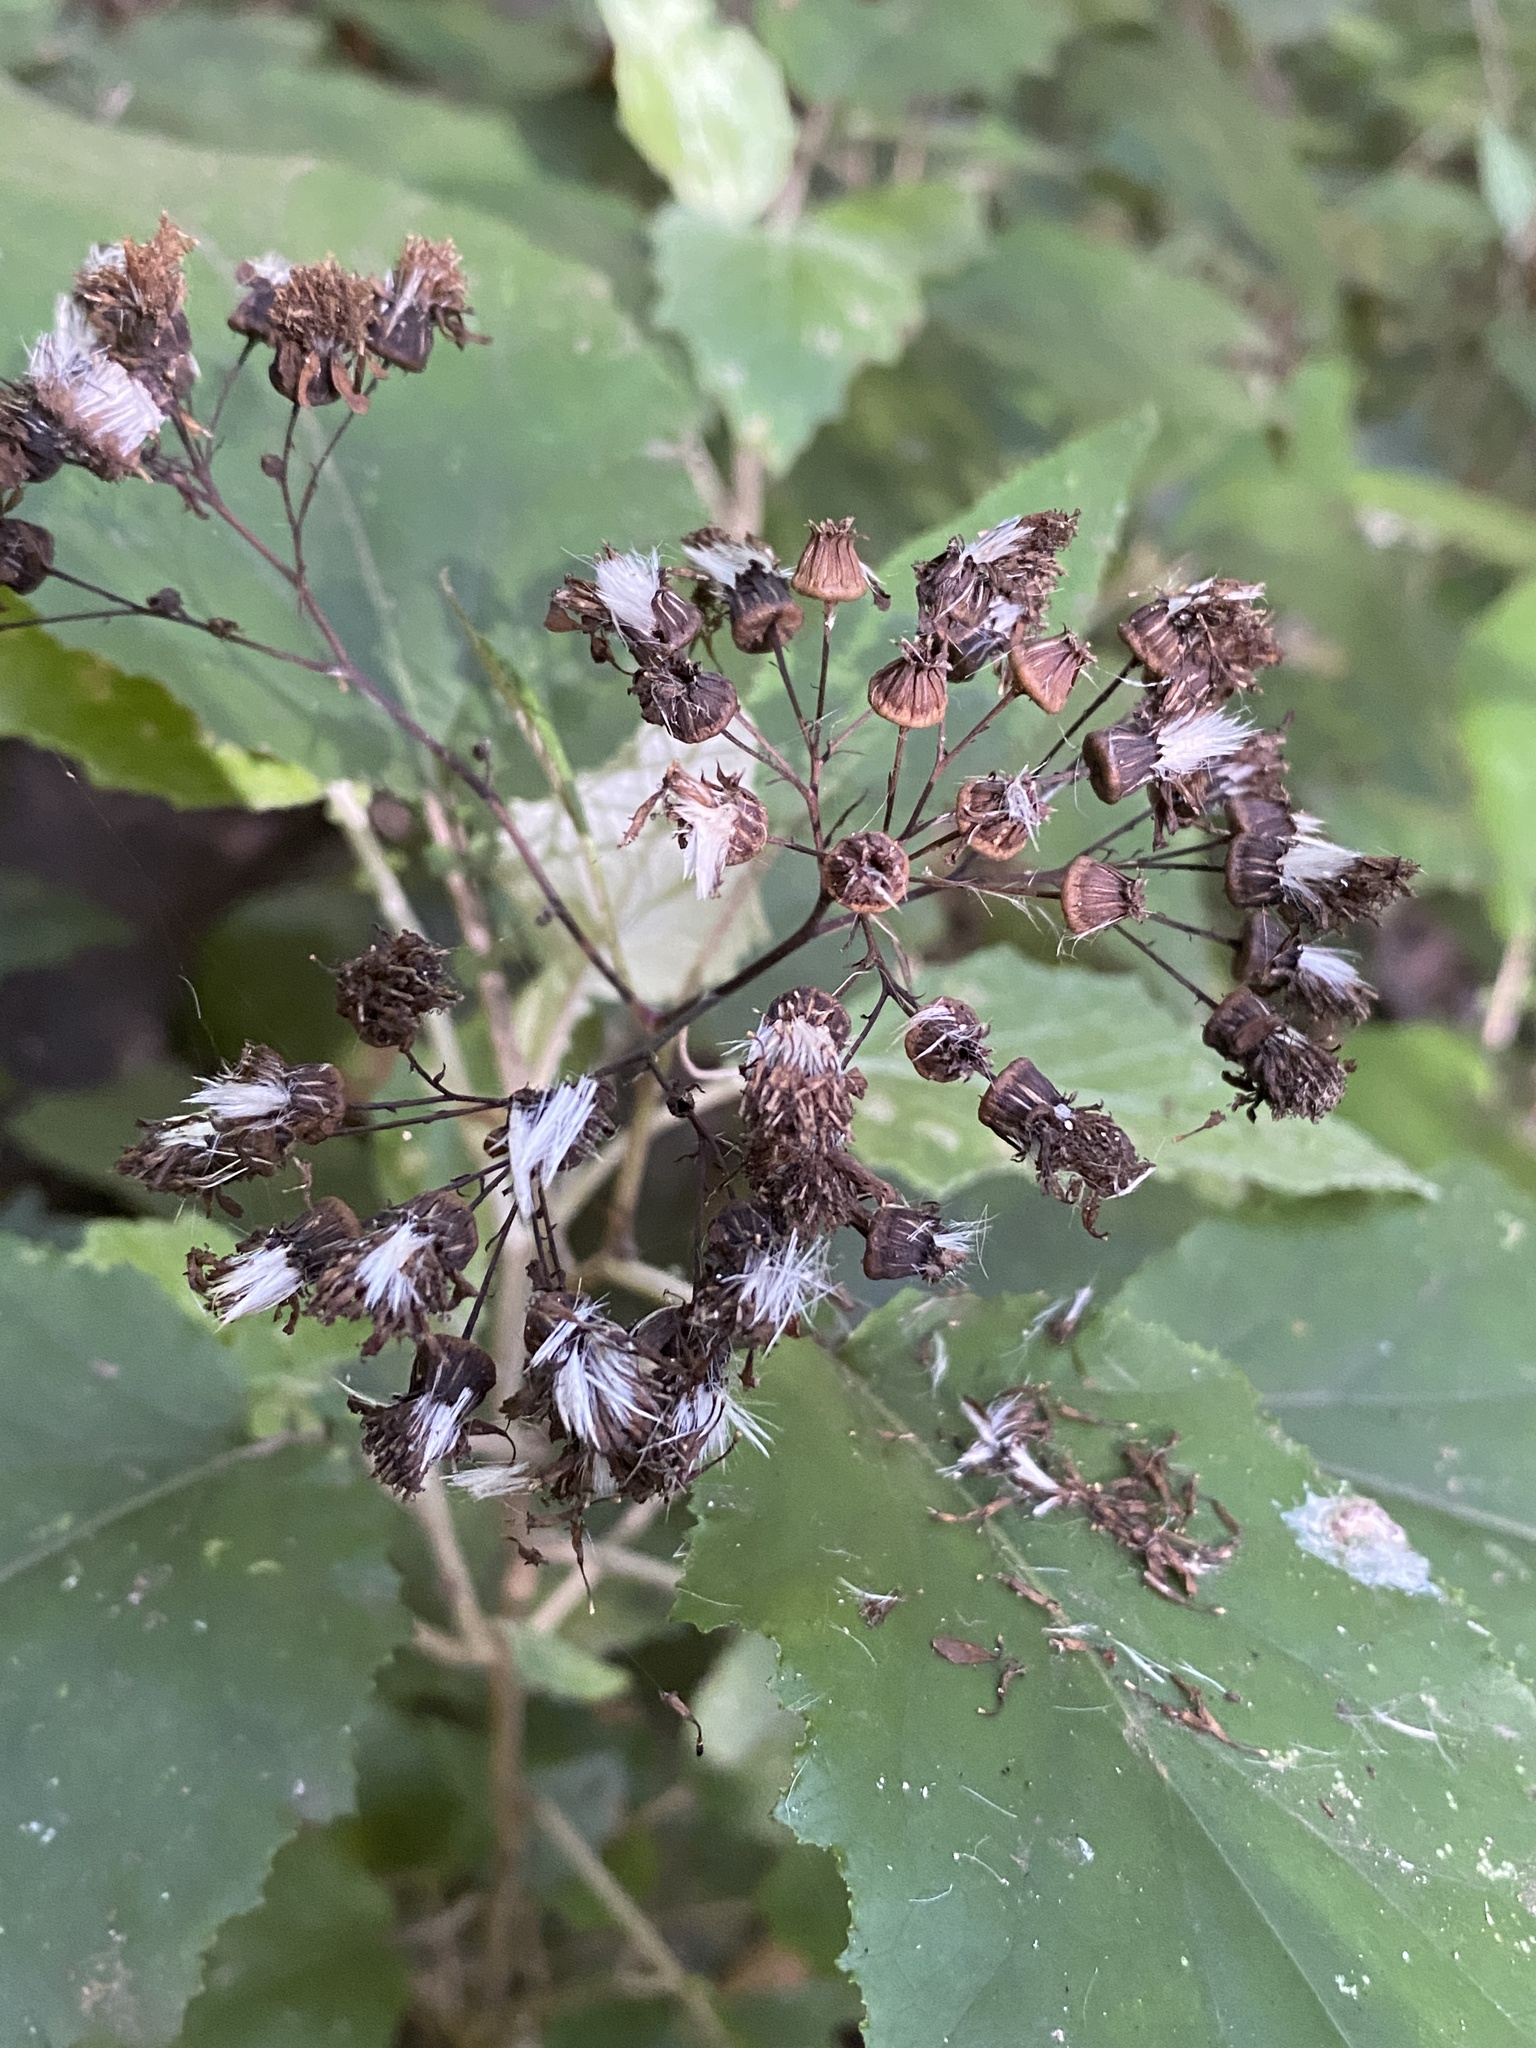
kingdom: Plantae
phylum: Tracheophyta
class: Magnoliopsida
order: Asterales
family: Asteraceae
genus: Pericallis
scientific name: Pericallis appendiculata
